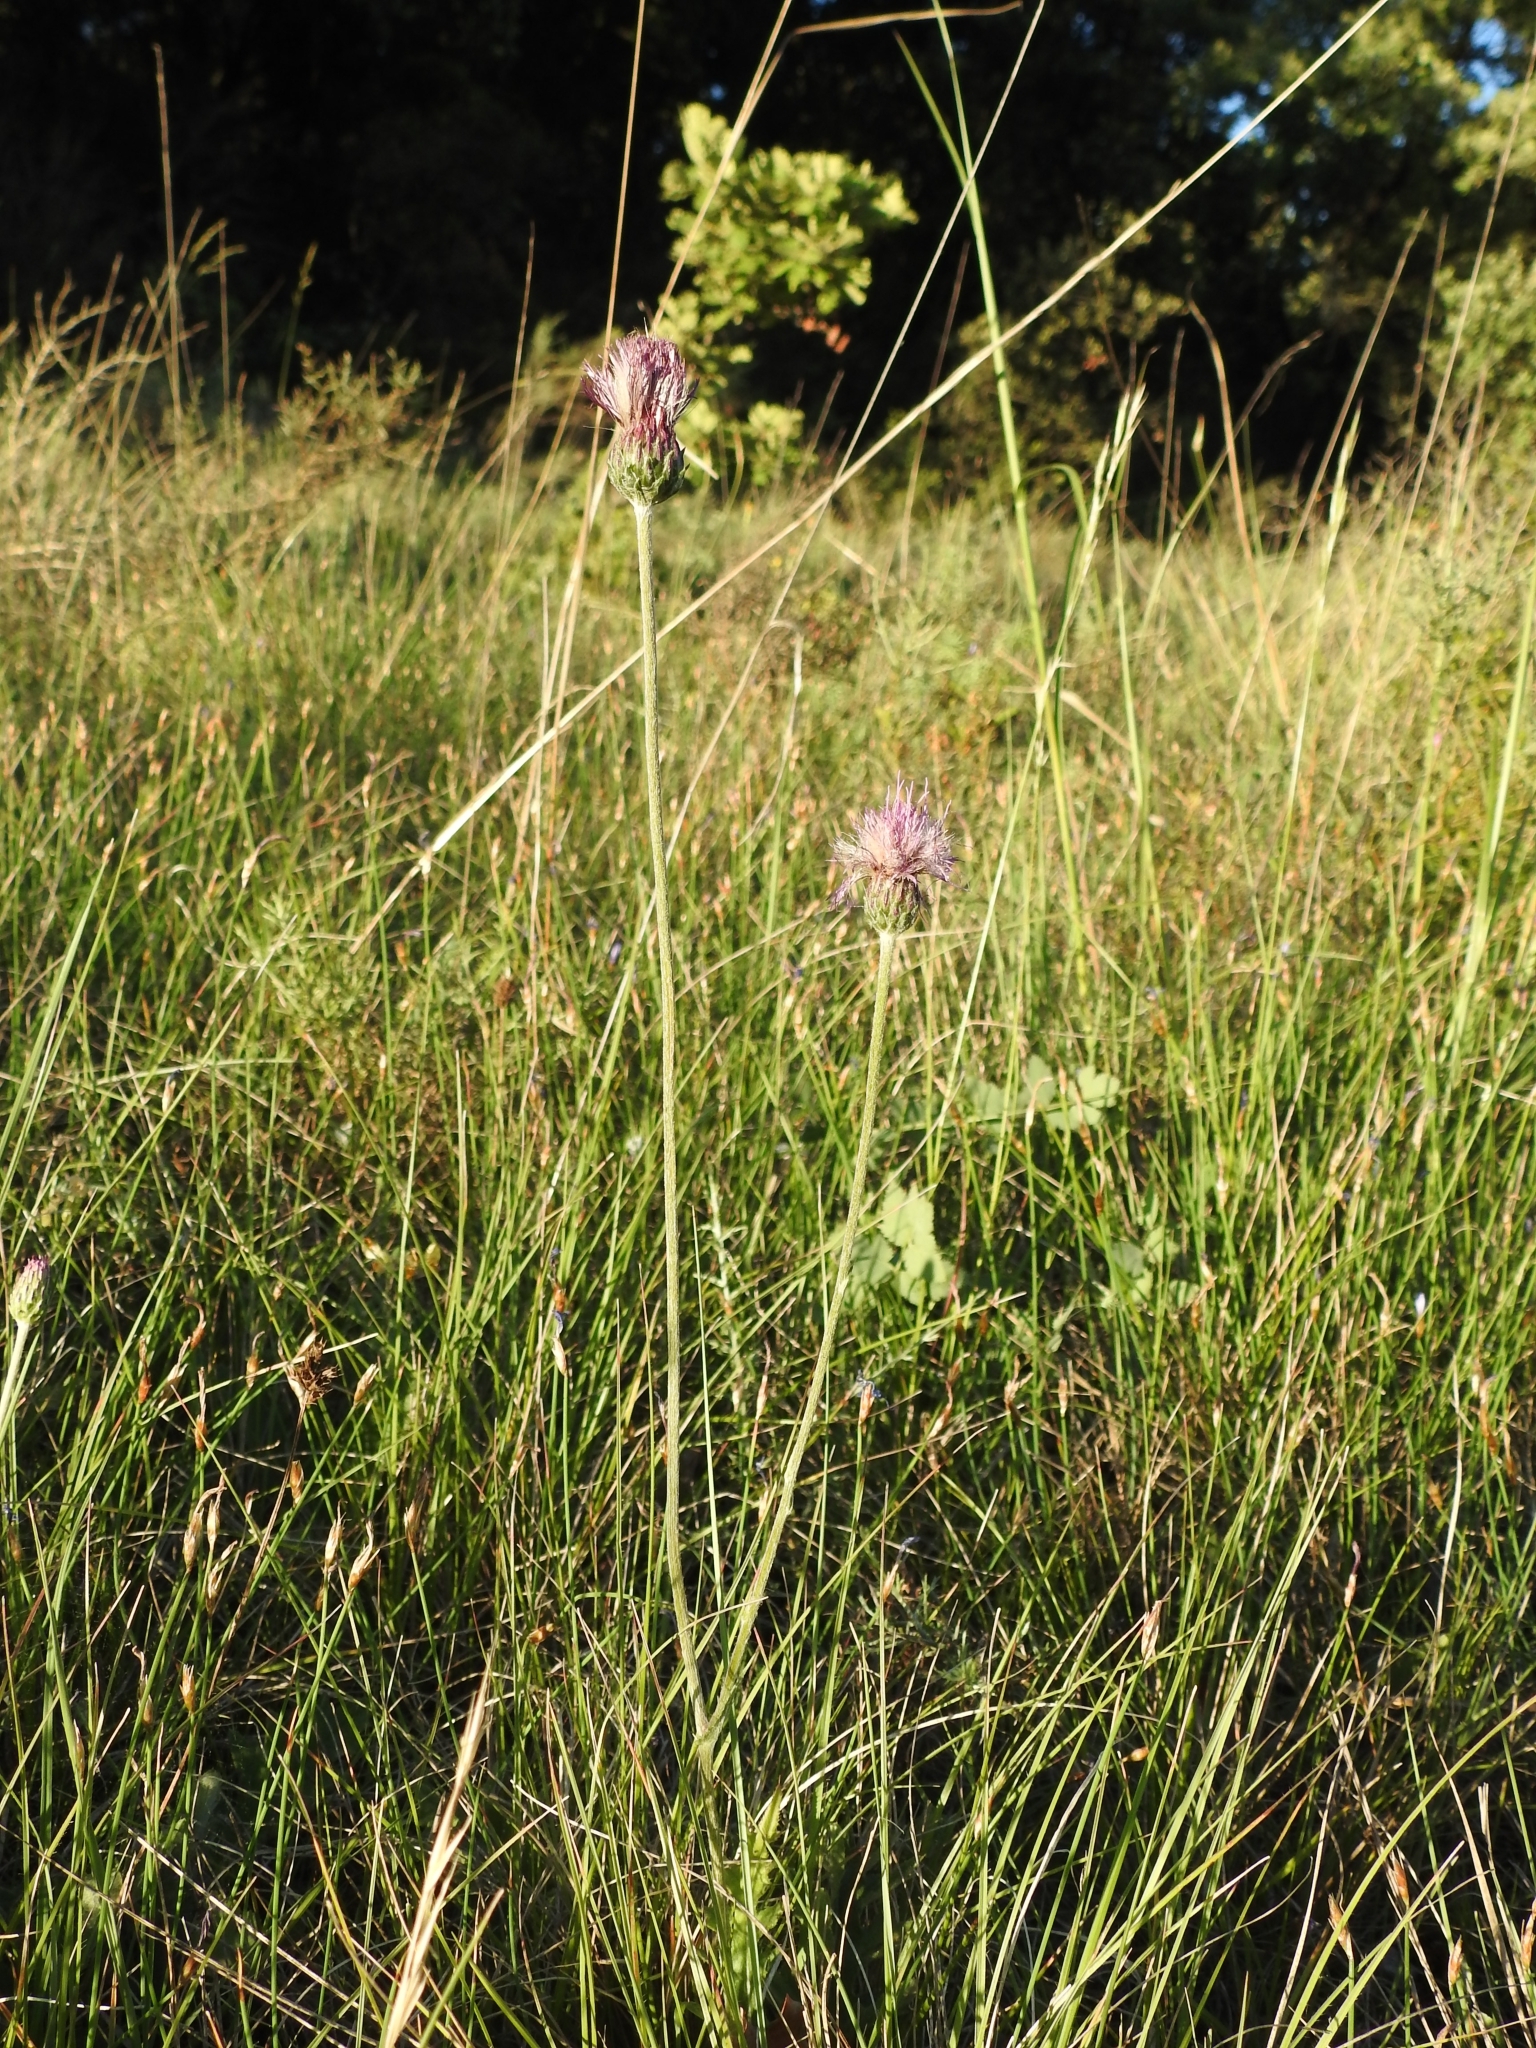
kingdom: Plantae
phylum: Tracheophyta
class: Magnoliopsida
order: Asterales
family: Asteraceae
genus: Cirsium
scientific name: Cirsium tuberosum
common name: Tuberous thistle
